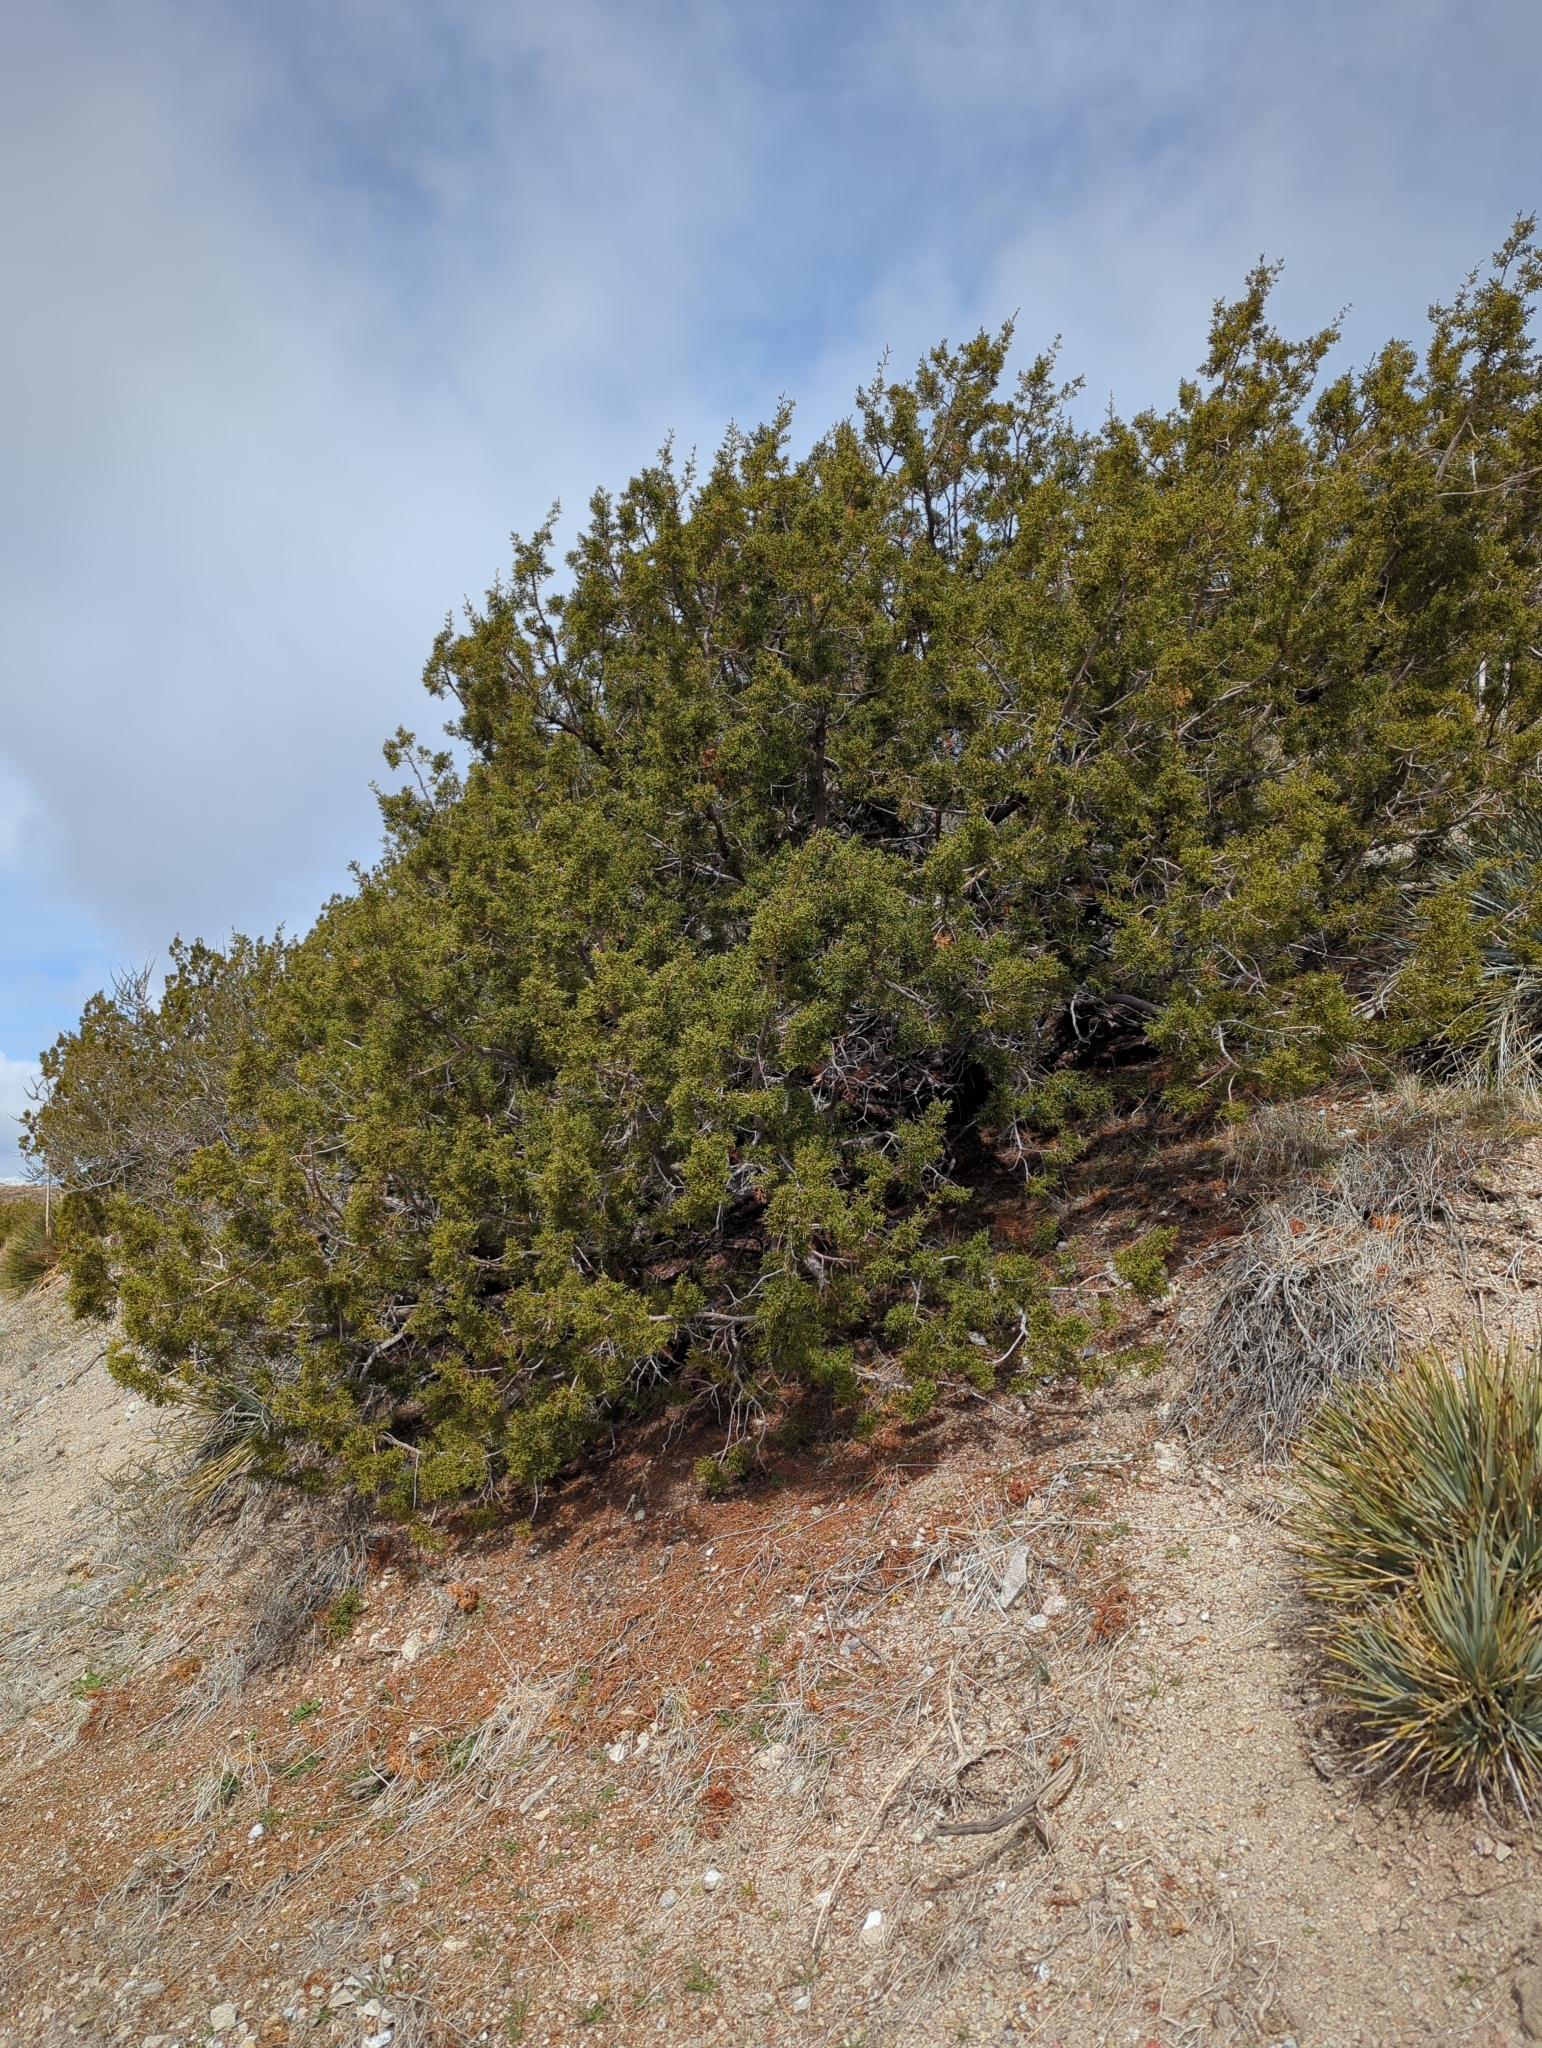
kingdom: Plantae
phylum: Tracheophyta
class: Pinopsida
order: Pinales
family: Cupressaceae
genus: Juniperus
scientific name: Juniperus californica
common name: California juniper
